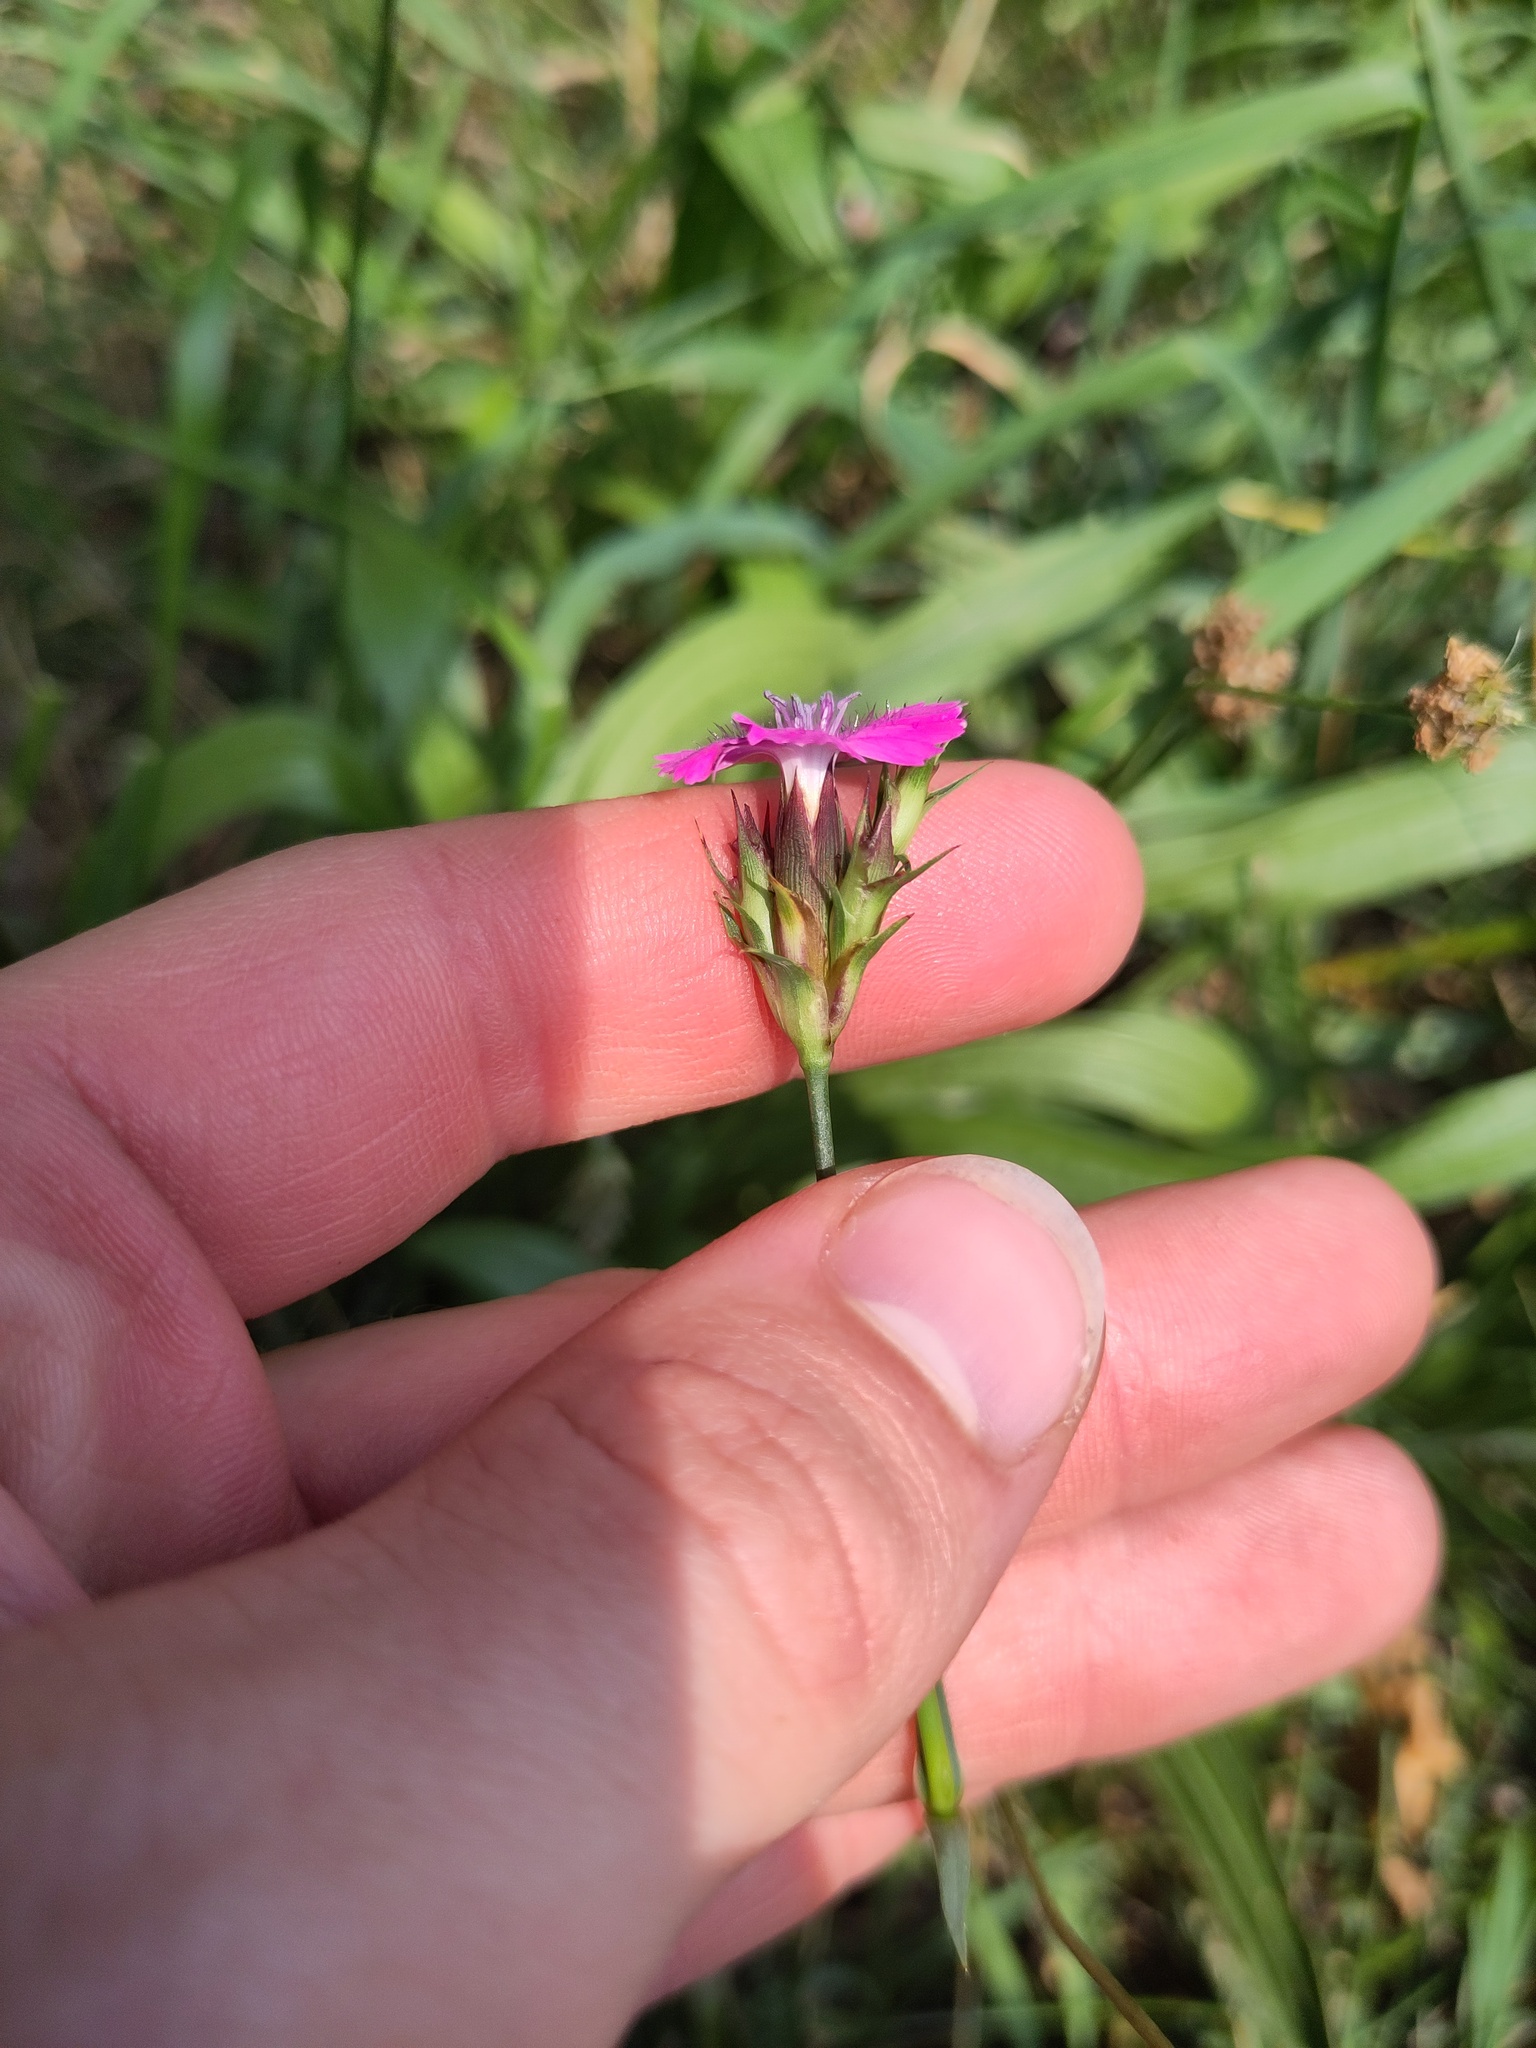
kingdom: Plantae
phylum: Tracheophyta
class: Magnoliopsida
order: Caryophyllales
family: Caryophyllaceae
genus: Dianthus
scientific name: Dianthus carthusianorum
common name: Carthusian pink
